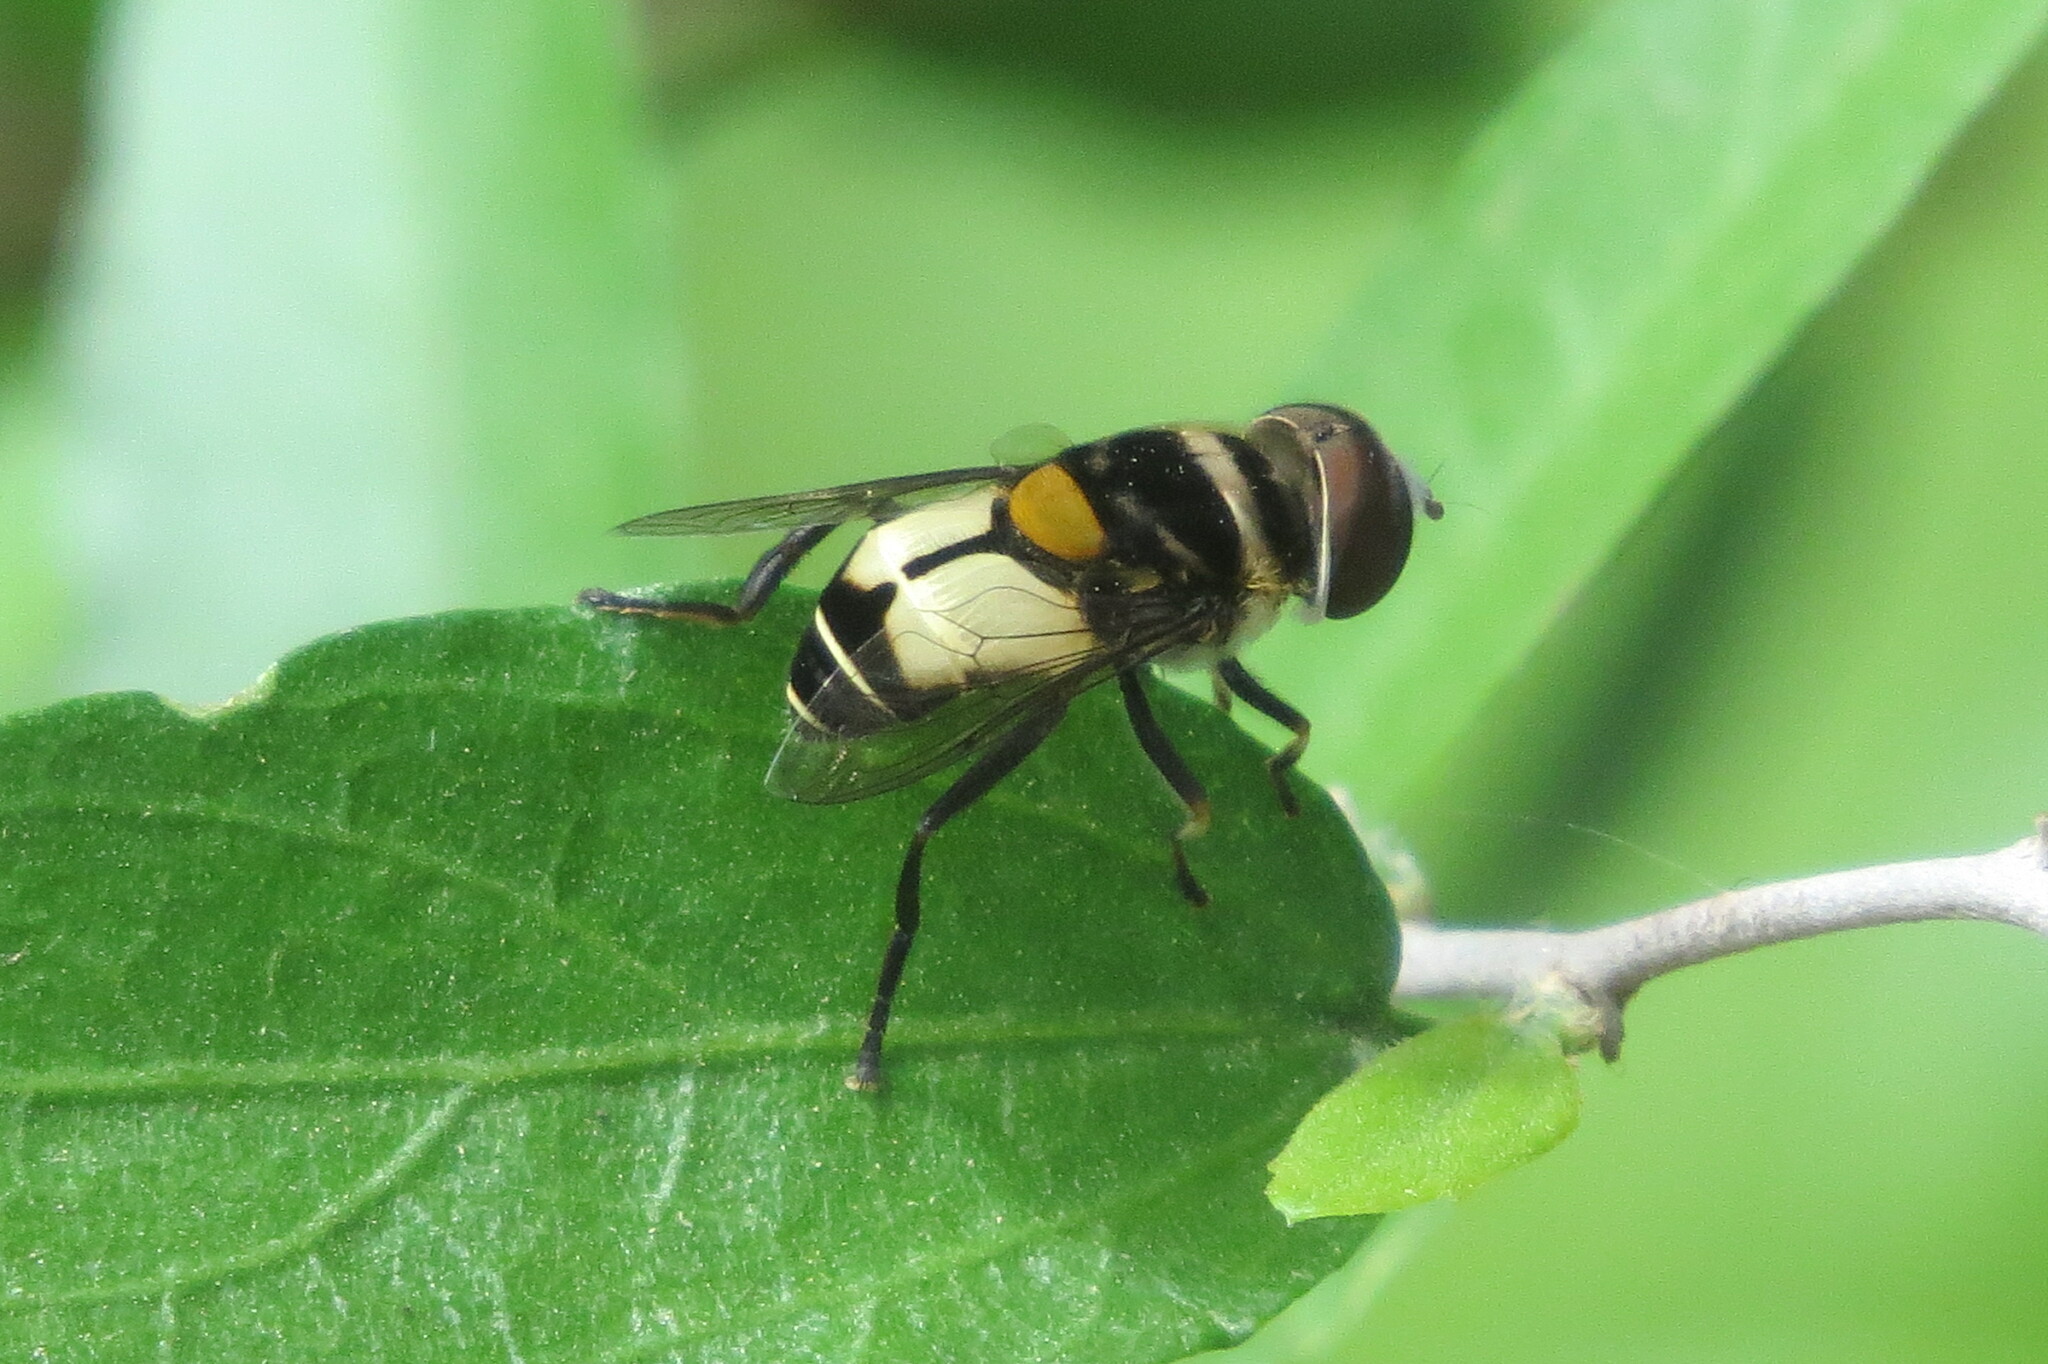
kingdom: Animalia
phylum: Arthropoda
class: Insecta
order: Diptera
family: Syrphidae
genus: Palpada
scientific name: Palpada albifrons
